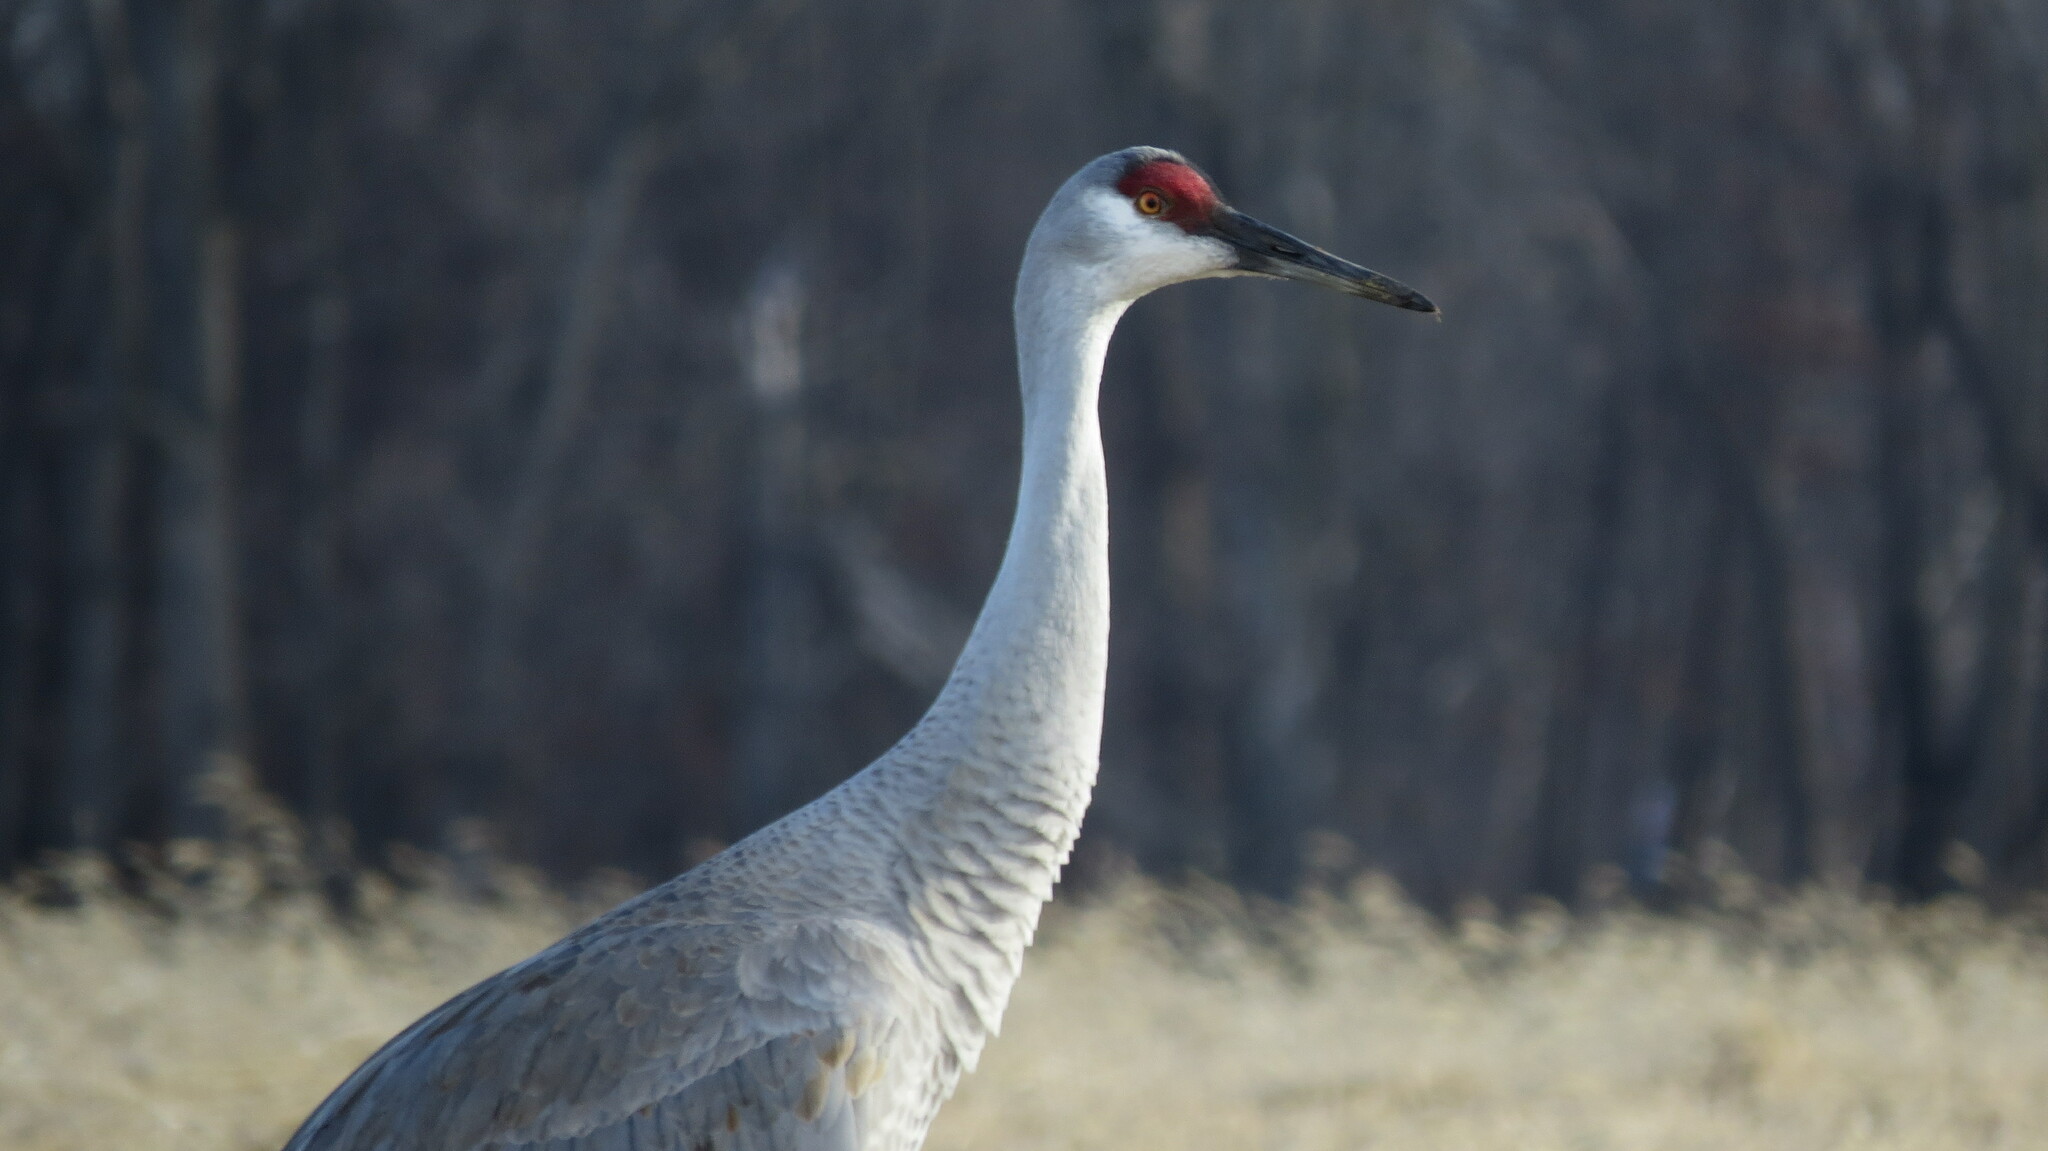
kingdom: Animalia
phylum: Chordata
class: Aves
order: Gruiformes
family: Gruidae
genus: Grus
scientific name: Grus canadensis
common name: Sandhill crane
